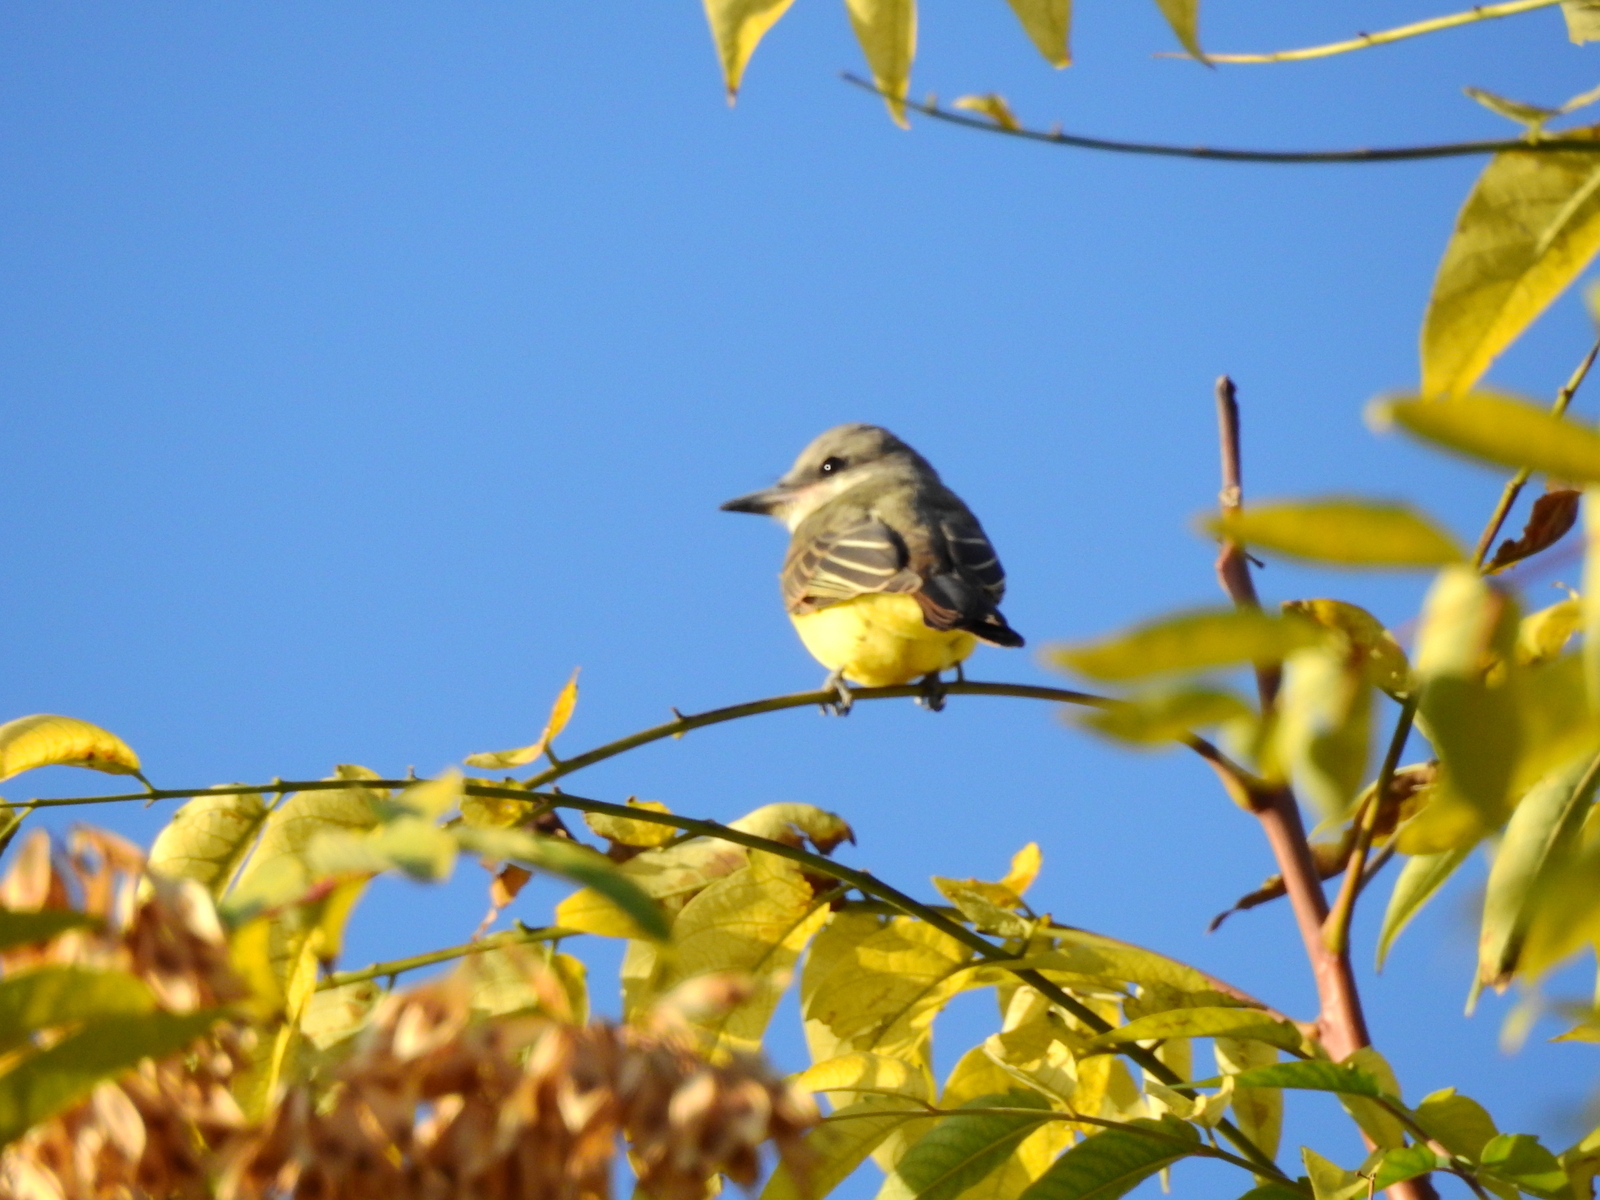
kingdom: Animalia
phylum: Chordata
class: Aves
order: Passeriformes
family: Tyrannidae
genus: Tyrannus
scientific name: Tyrannus melancholicus
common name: Tropical kingbird
